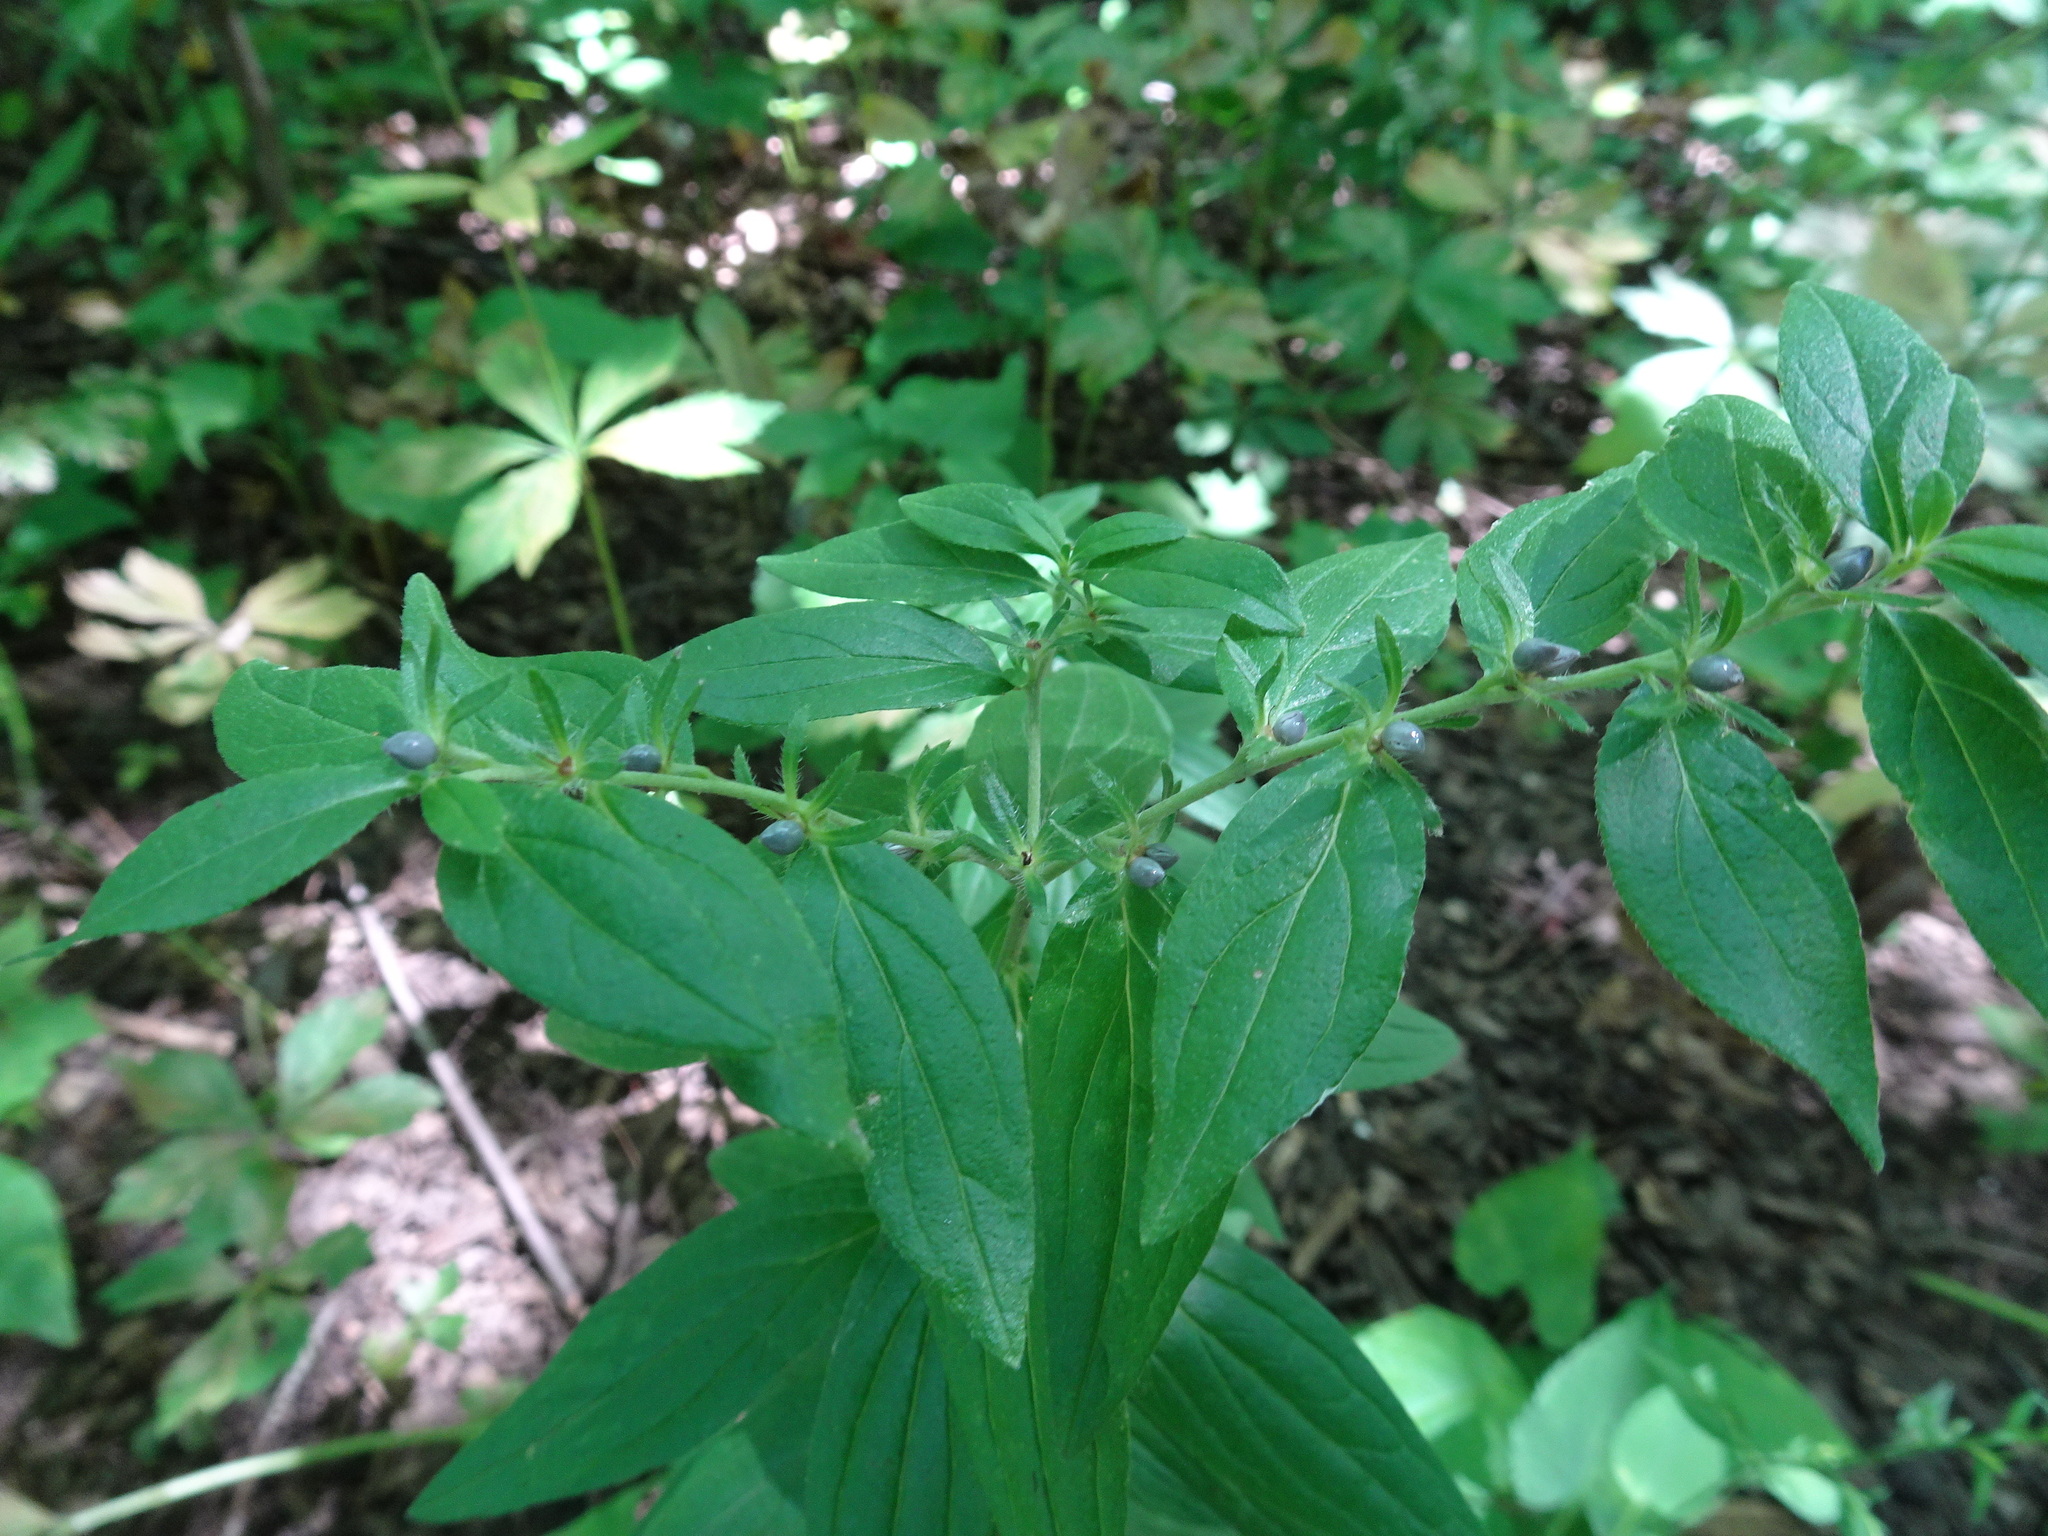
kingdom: Plantae
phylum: Tracheophyta
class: Magnoliopsida
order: Boraginales
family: Boraginaceae
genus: Lithospermum
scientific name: Lithospermum officinale
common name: Common gromwell
